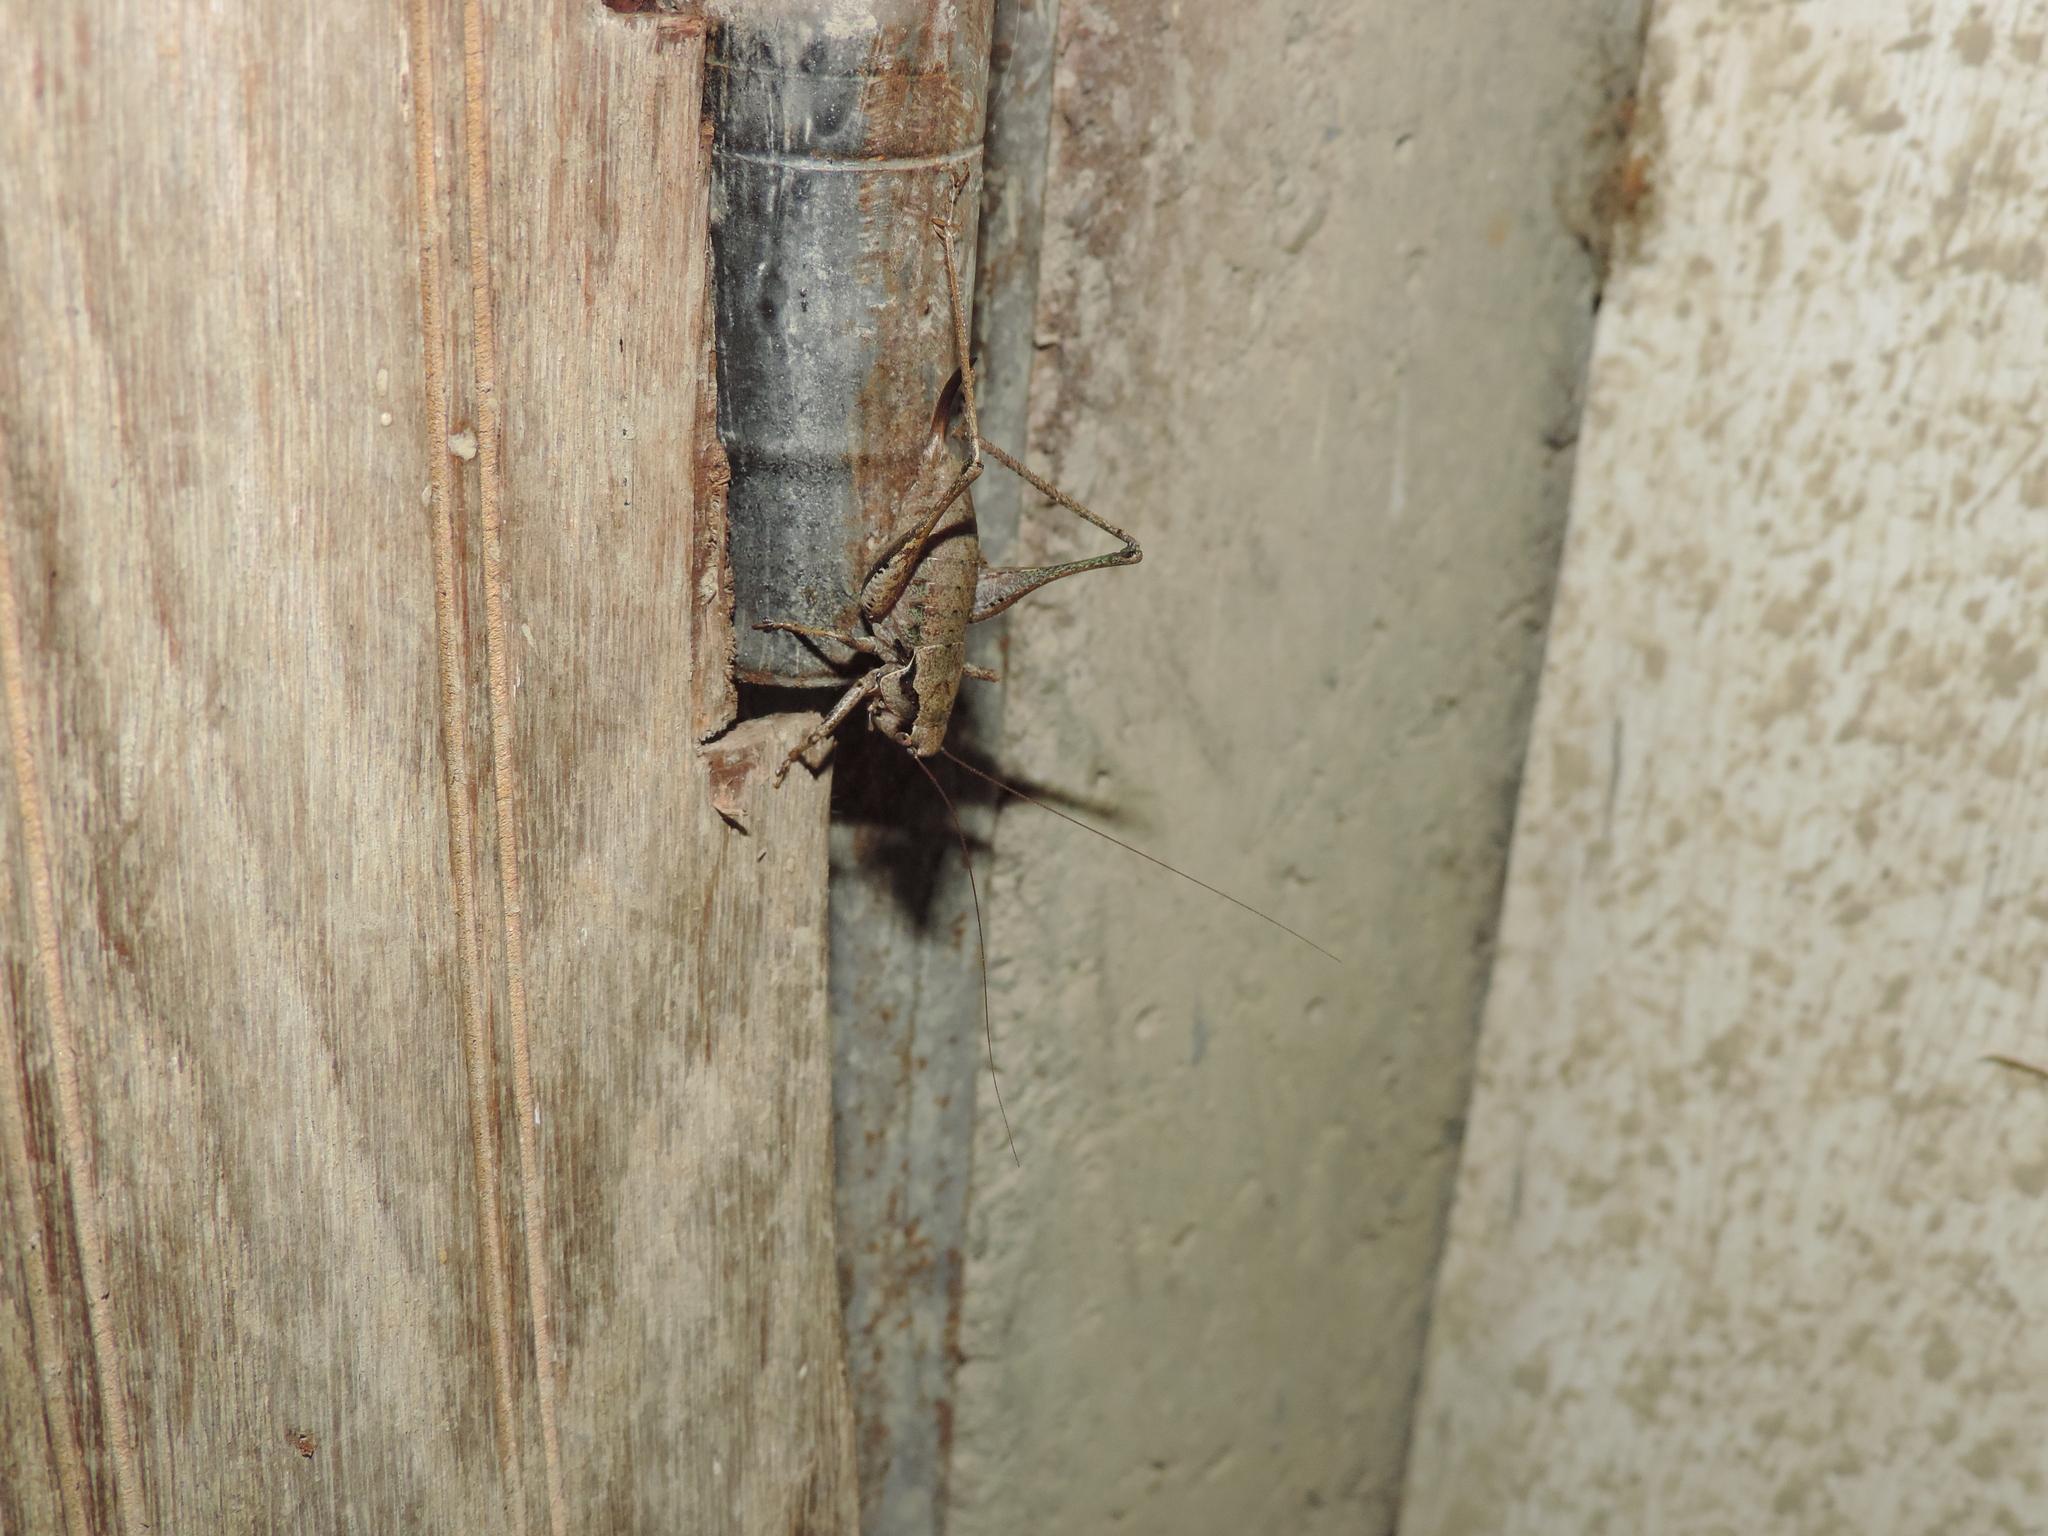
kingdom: Animalia
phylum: Arthropoda
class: Insecta
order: Orthoptera
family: Tettigoniidae
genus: Pholidoptera
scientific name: Pholidoptera griseoaptera
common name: Dark bush-cricket
